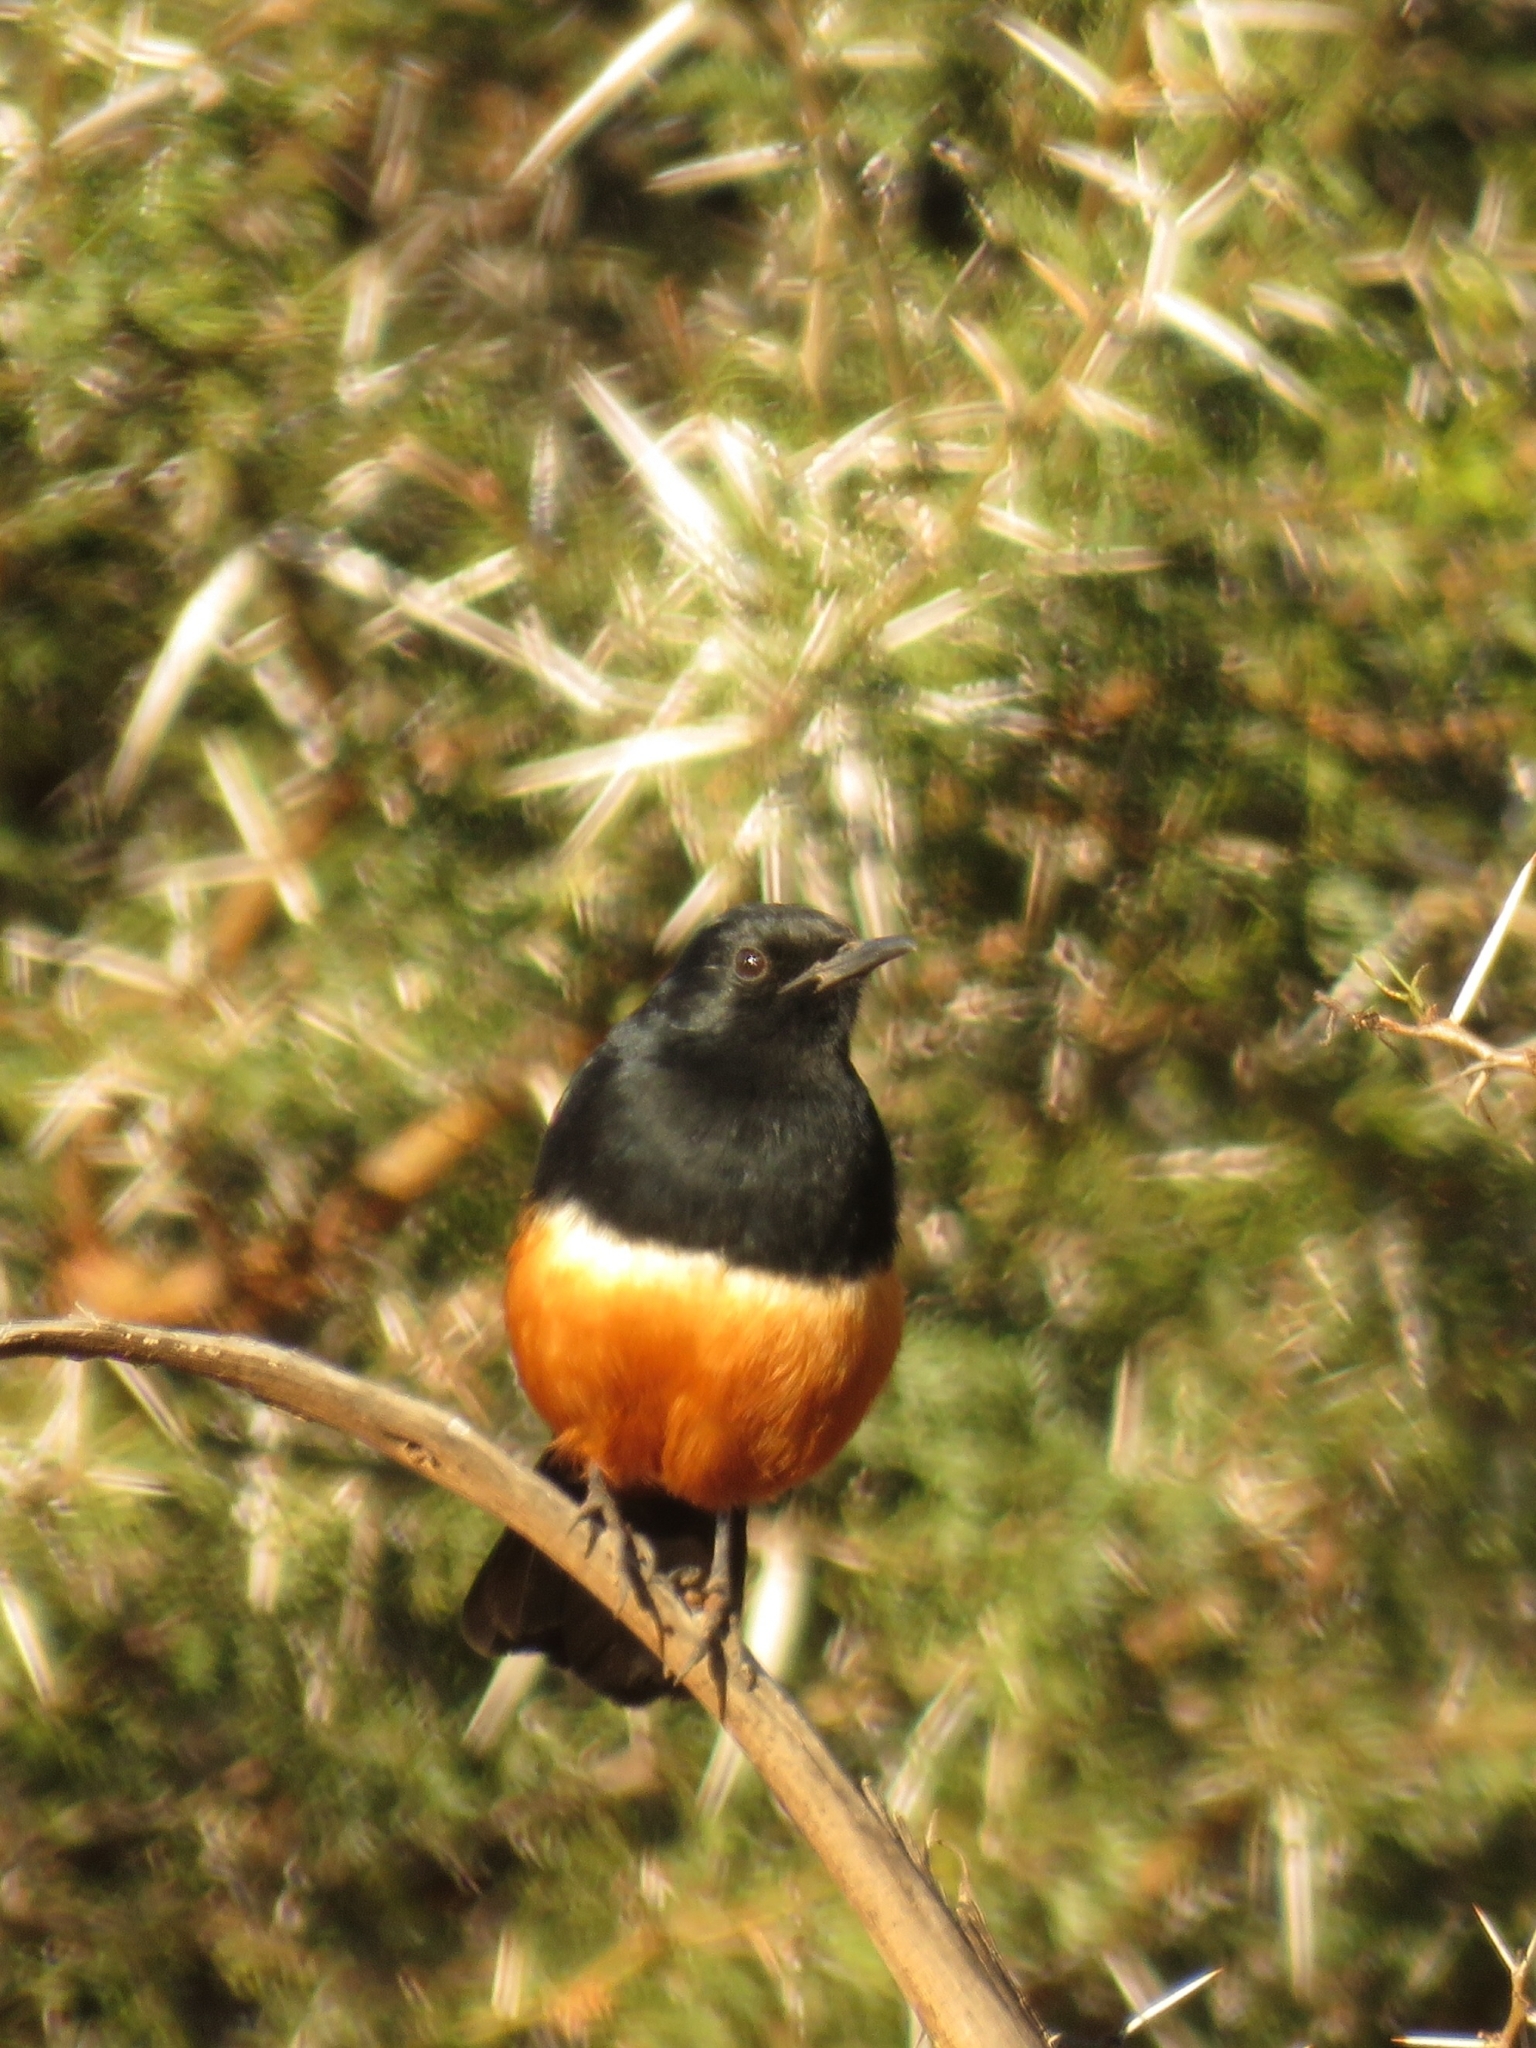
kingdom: Animalia
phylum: Chordata
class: Aves
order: Passeriformes
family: Muscicapidae
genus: Thamnolaea
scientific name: Thamnolaea cinnamomeiventris
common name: Mocking cliff chat
